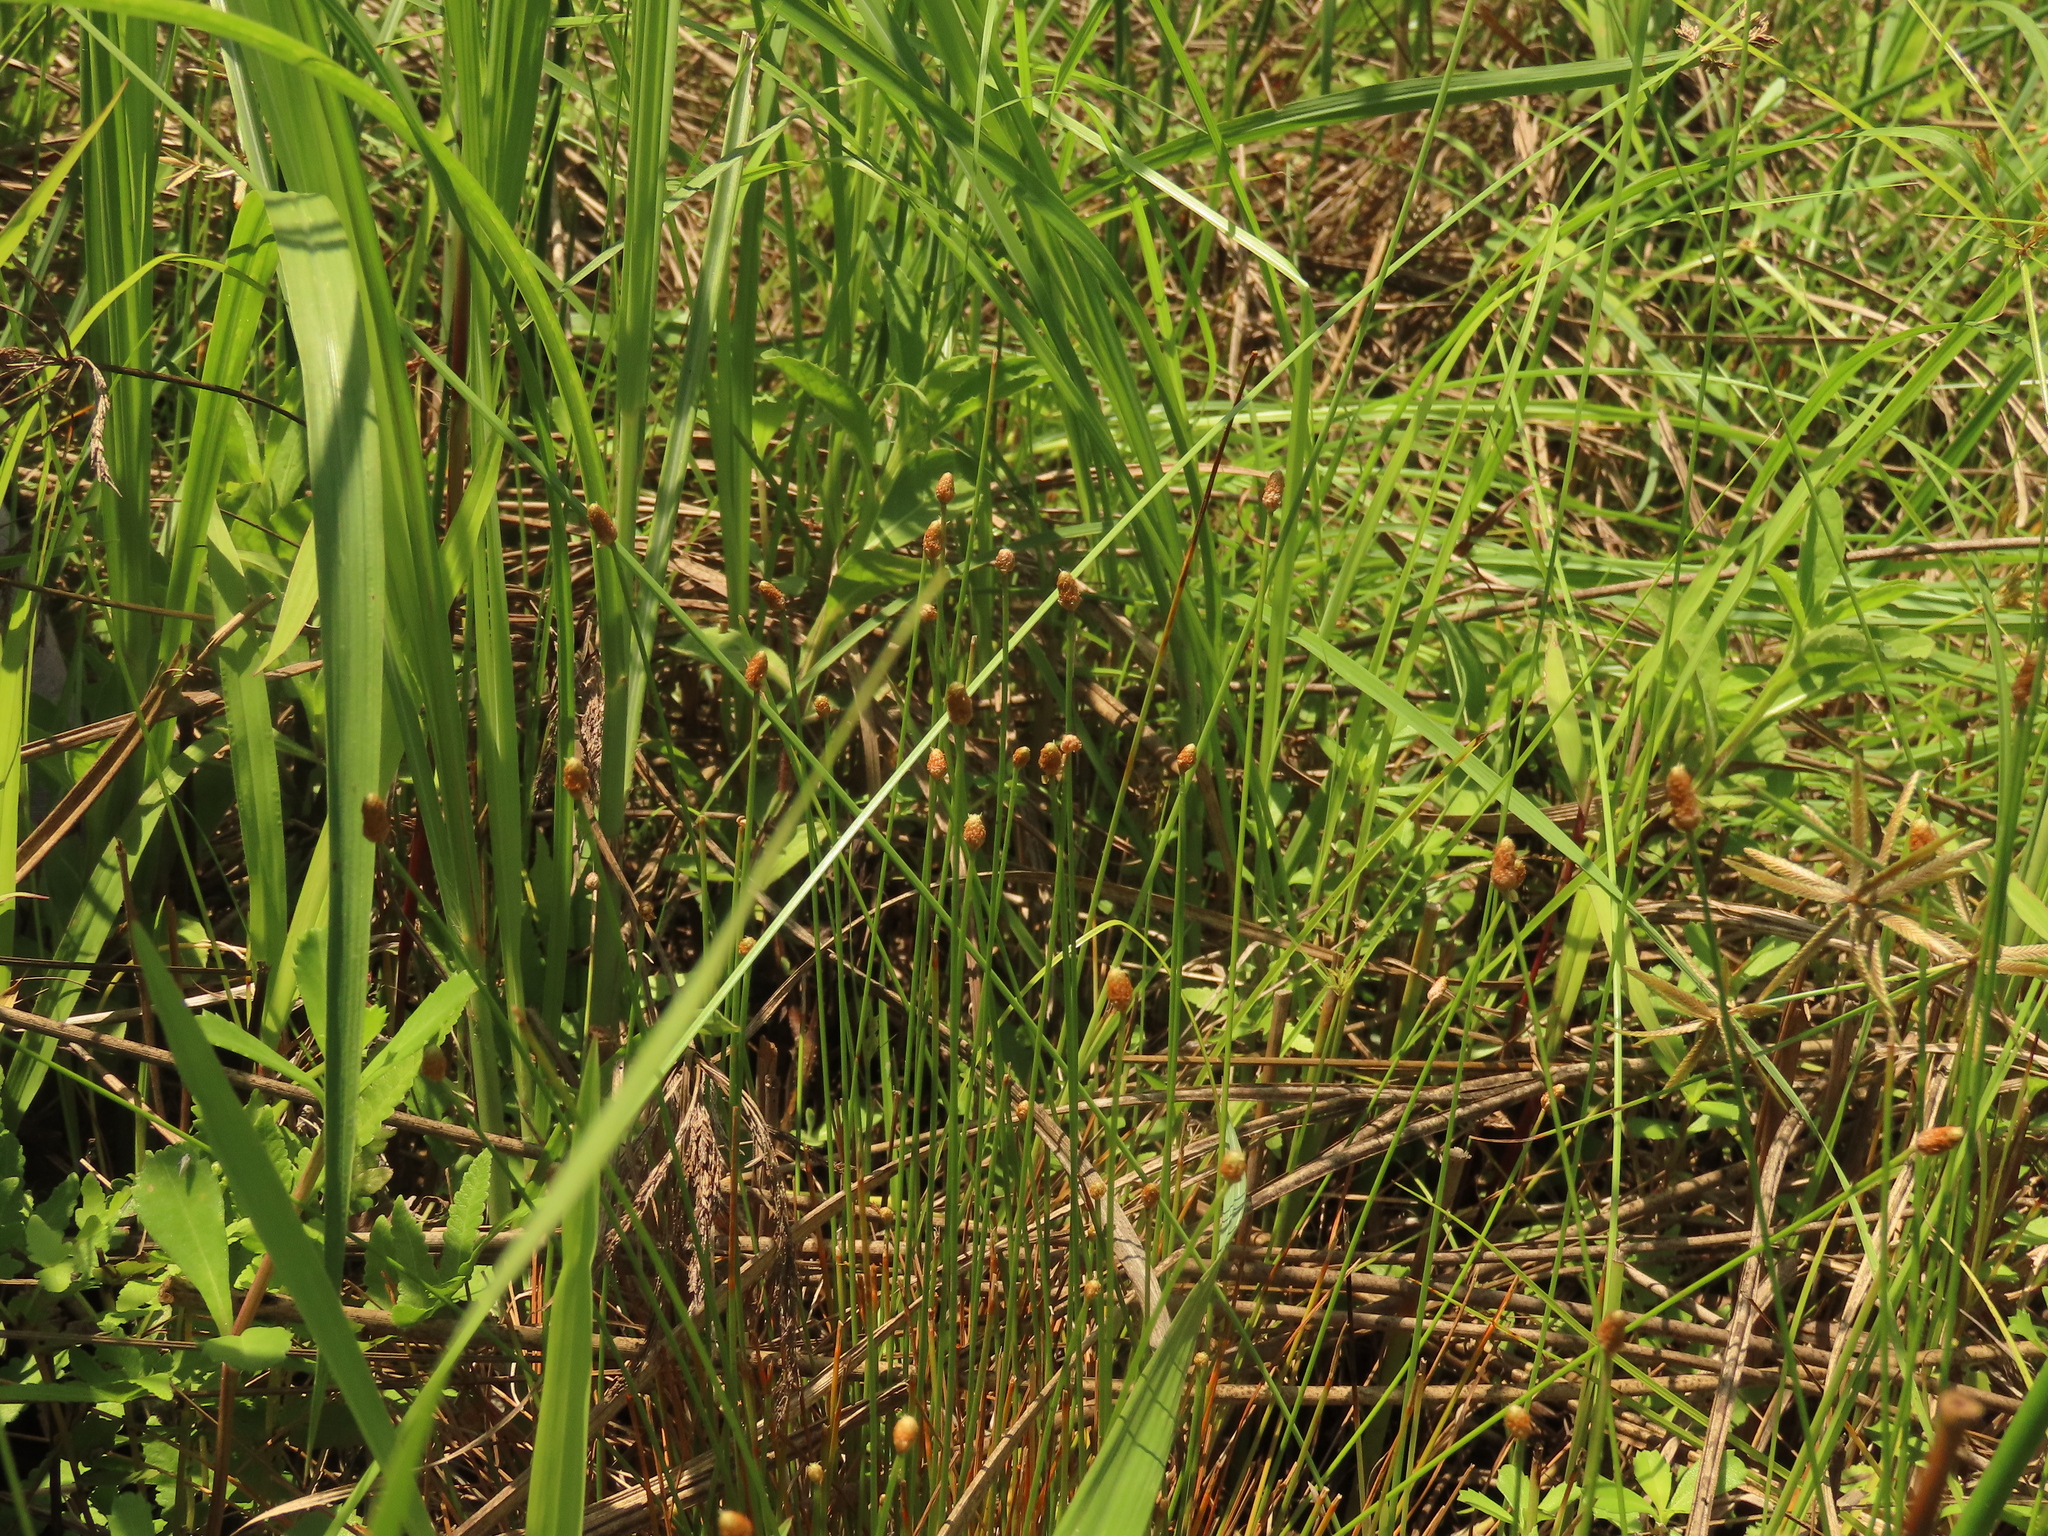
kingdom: Plantae
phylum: Tracheophyta
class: Liliopsida
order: Poales
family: Cyperaceae
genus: Eleocharis
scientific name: Eleocharis geniculata
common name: Canada spikesedge
